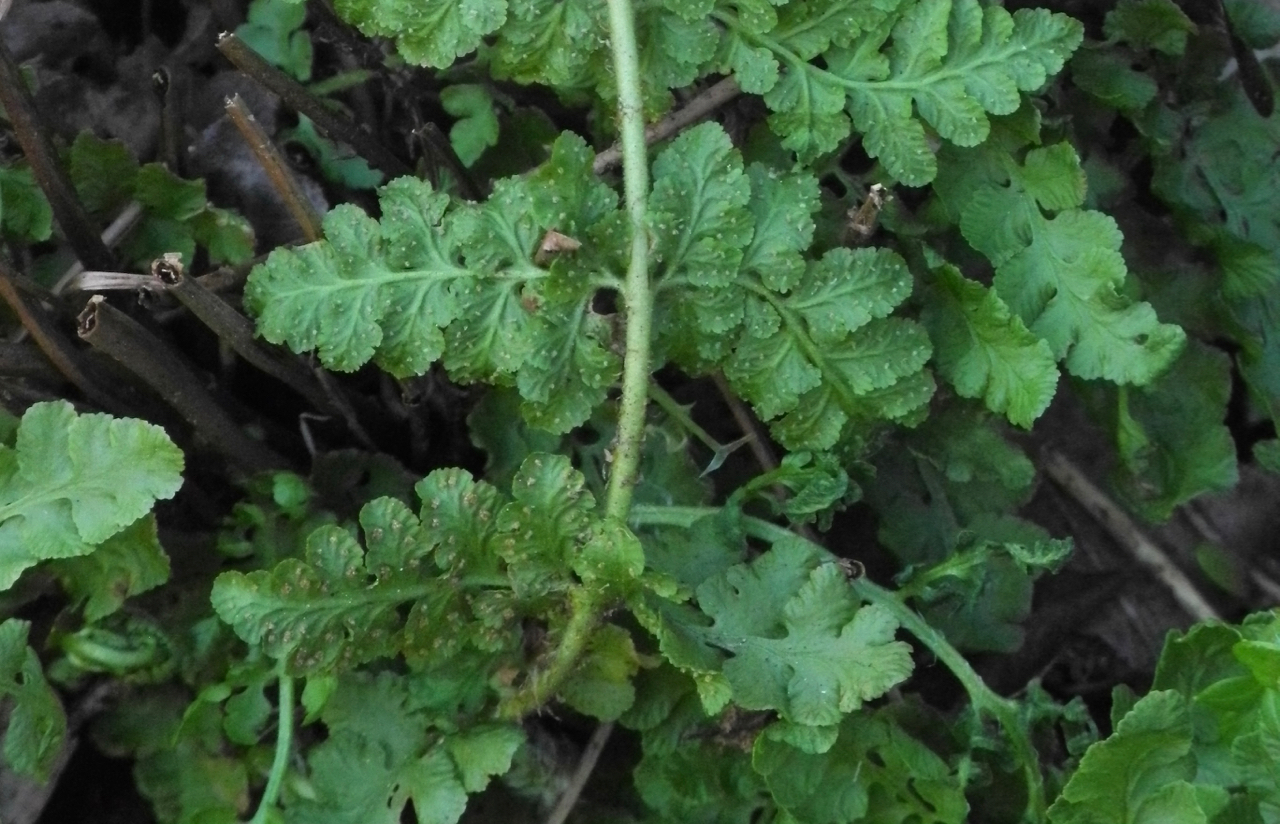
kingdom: Plantae
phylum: Tracheophyta
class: Polypodiopsida
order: Polypodiales
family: Woodsiaceae
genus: Physematium
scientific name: Physematium obtusum
